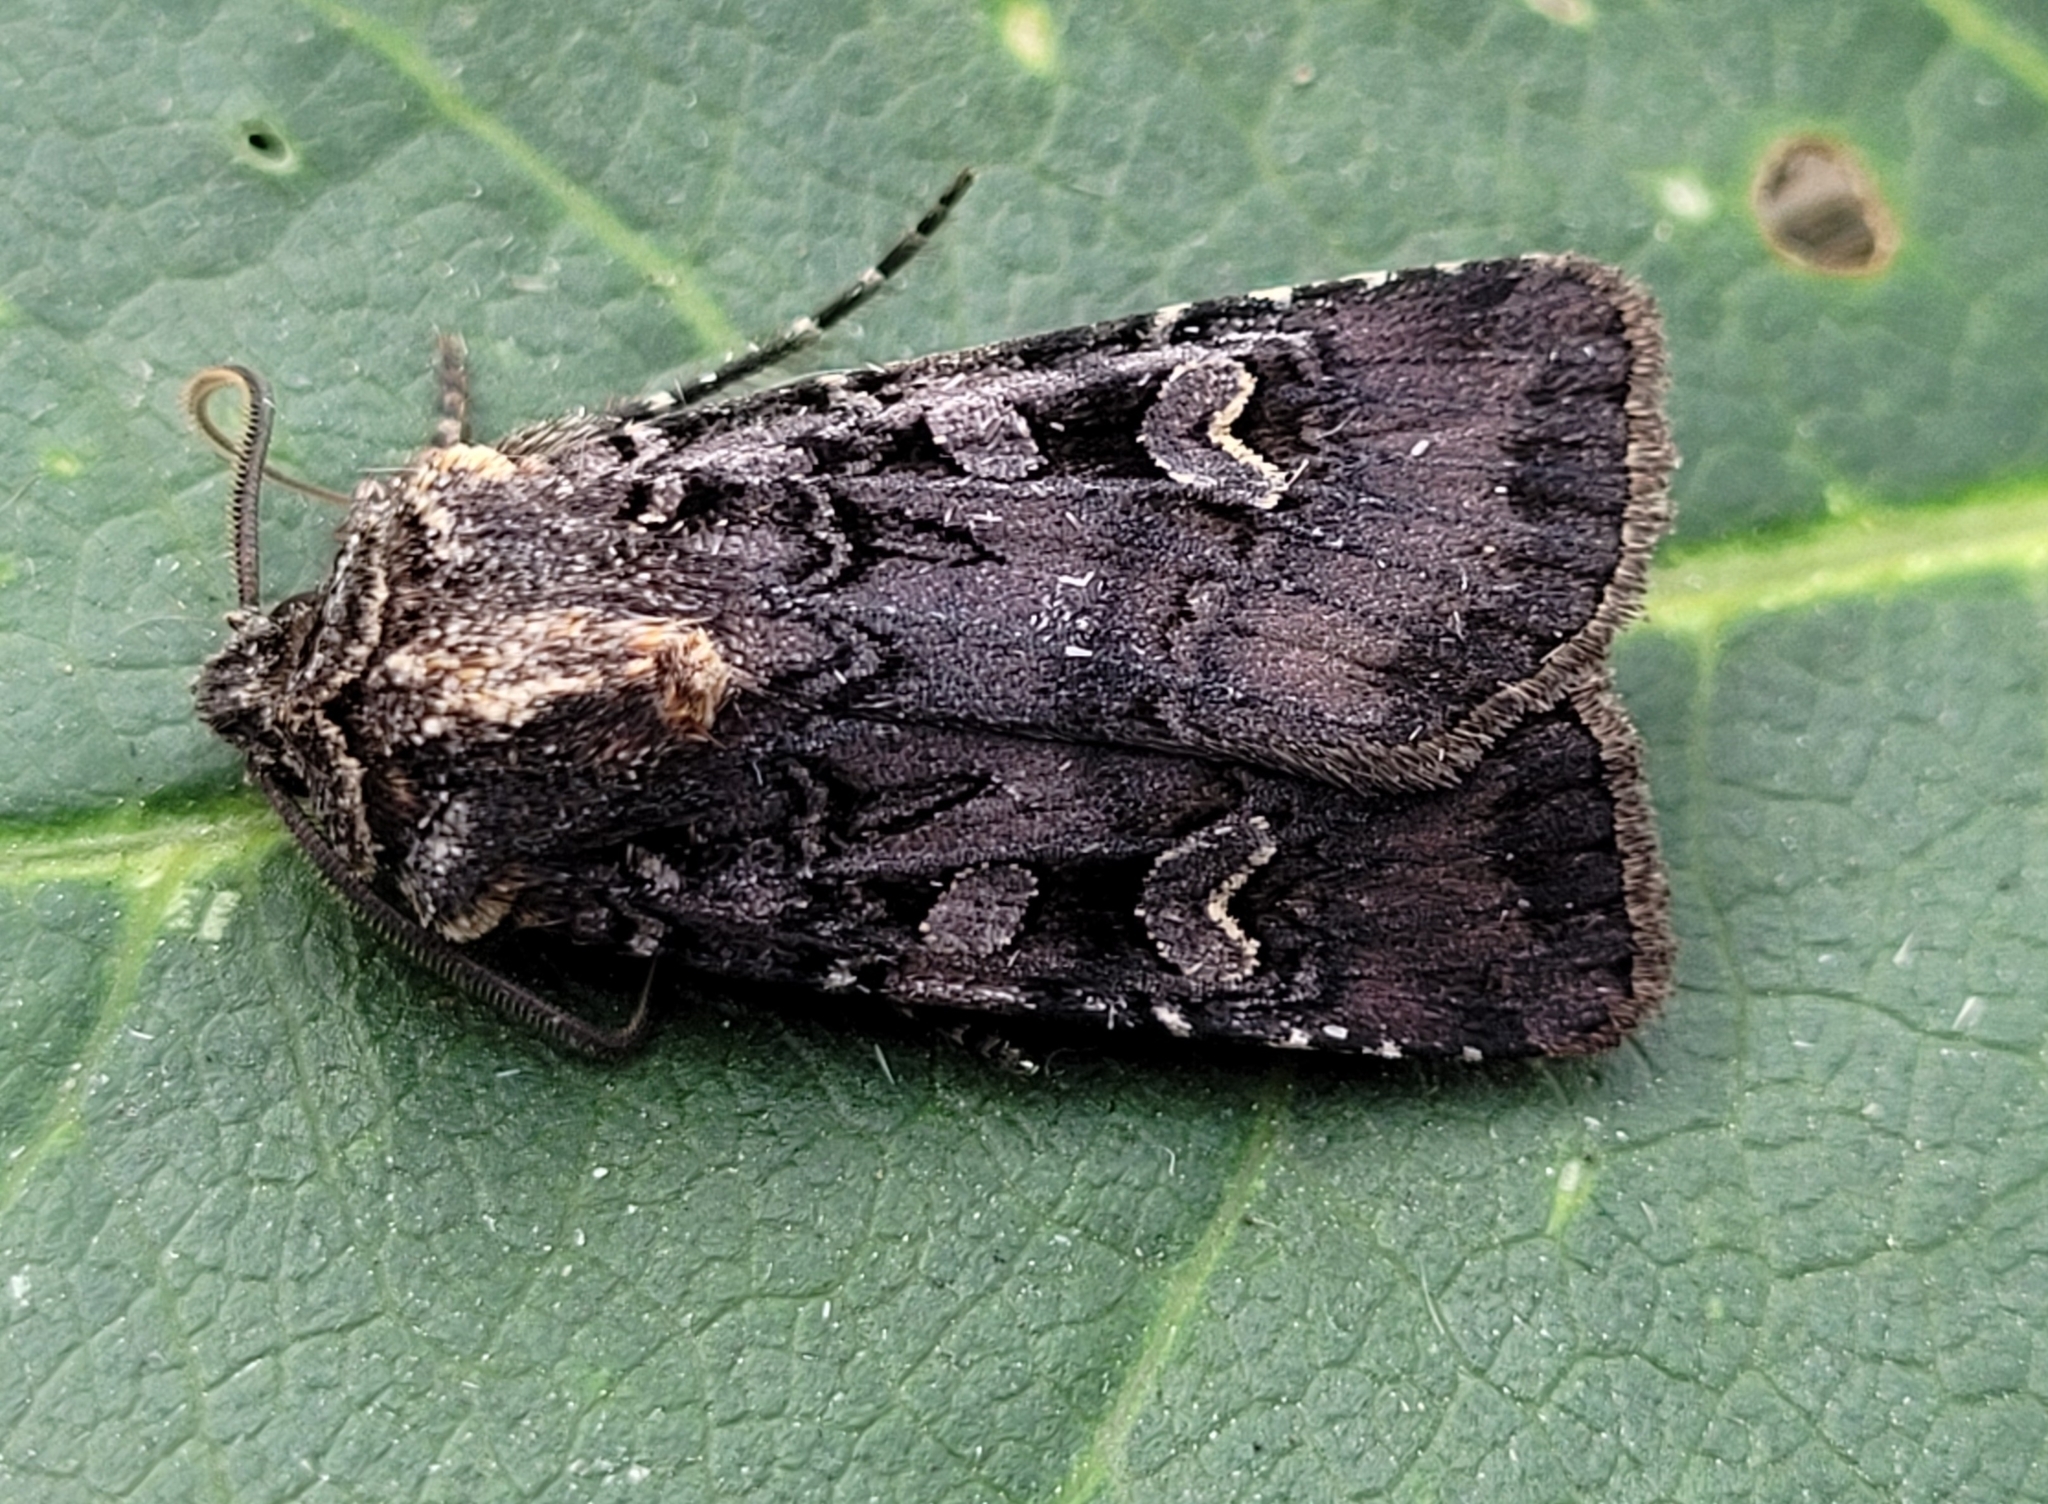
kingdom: Animalia
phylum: Arthropoda
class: Insecta
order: Lepidoptera
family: Noctuidae
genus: Euxoa
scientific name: Euxoa tessellata
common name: Striped cutworm
